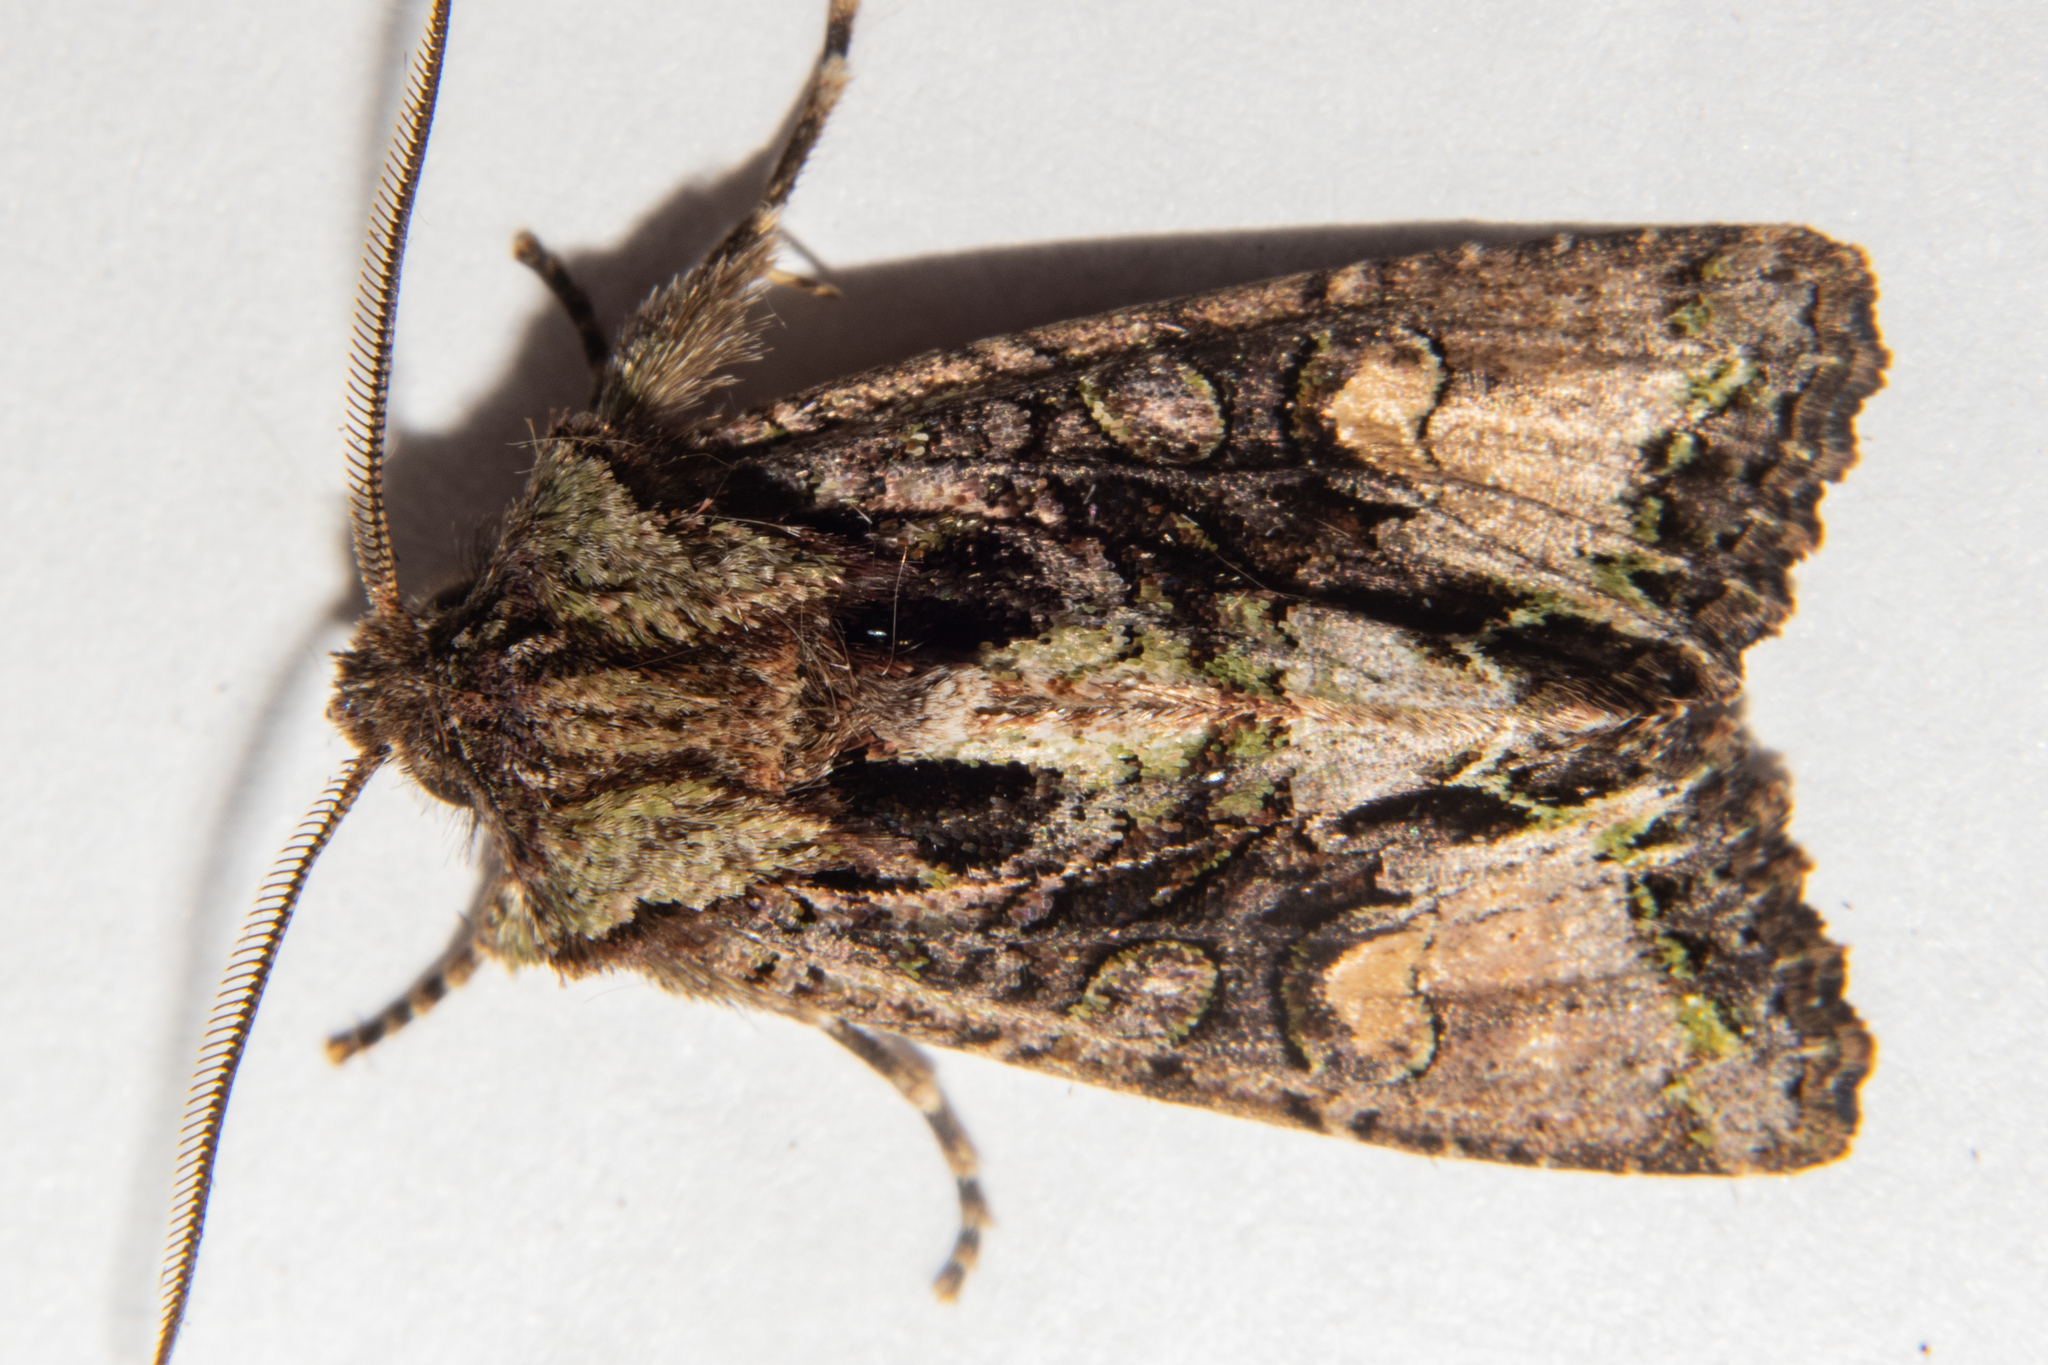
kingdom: Animalia
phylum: Arthropoda
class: Insecta
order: Lepidoptera
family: Noctuidae
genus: Ichneutica
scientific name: Ichneutica insignis
